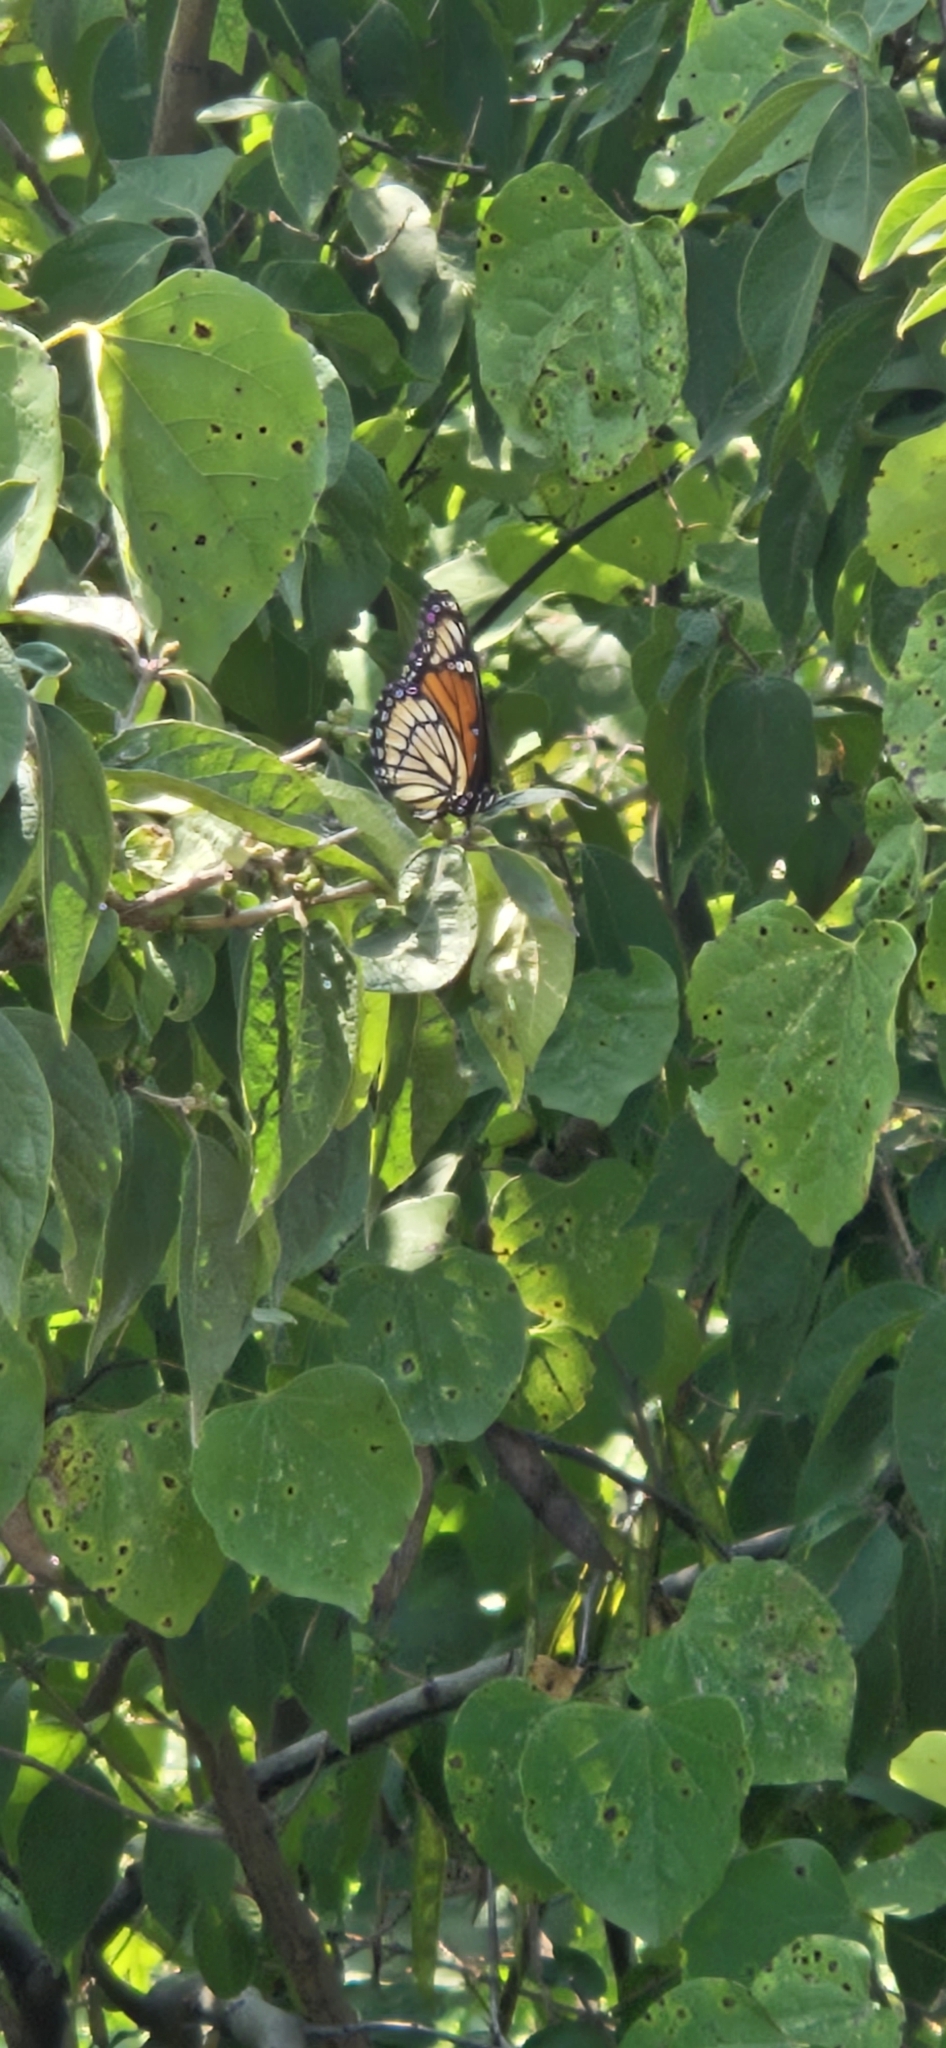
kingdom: Animalia
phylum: Arthropoda
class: Insecta
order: Lepidoptera
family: Nymphalidae
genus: Limenitis
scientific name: Limenitis archippus
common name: Viceroy
